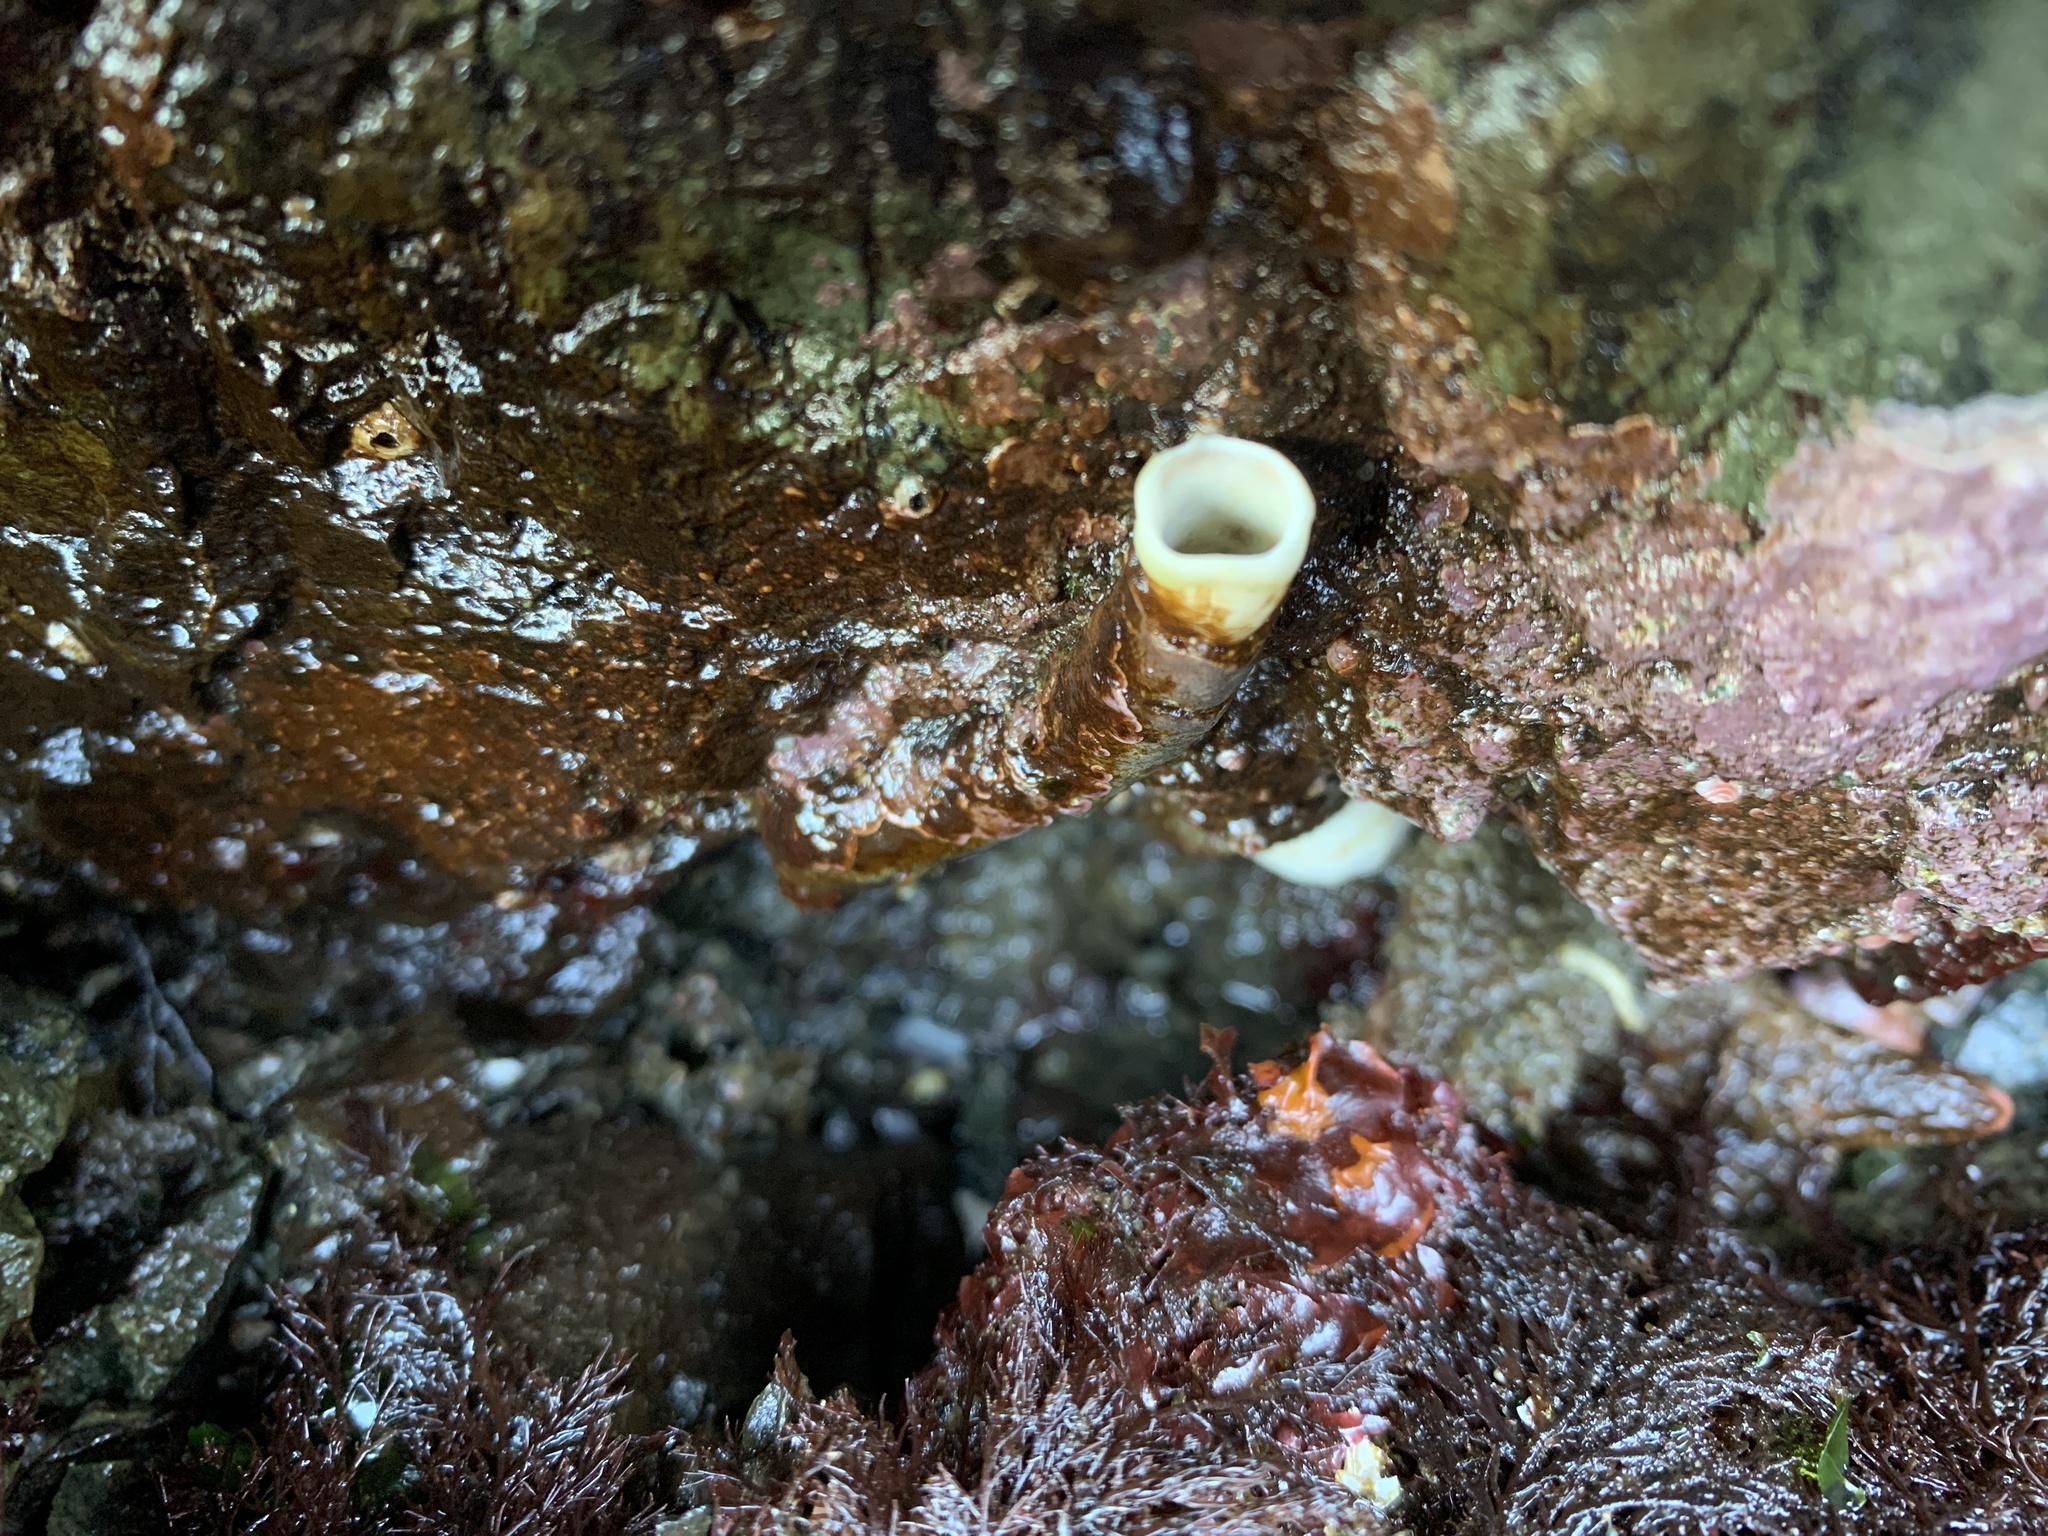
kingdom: Animalia
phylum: Annelida
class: Polychaeta
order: Sabellida
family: Serpulidae
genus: Serpula
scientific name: Serpula columbiana
